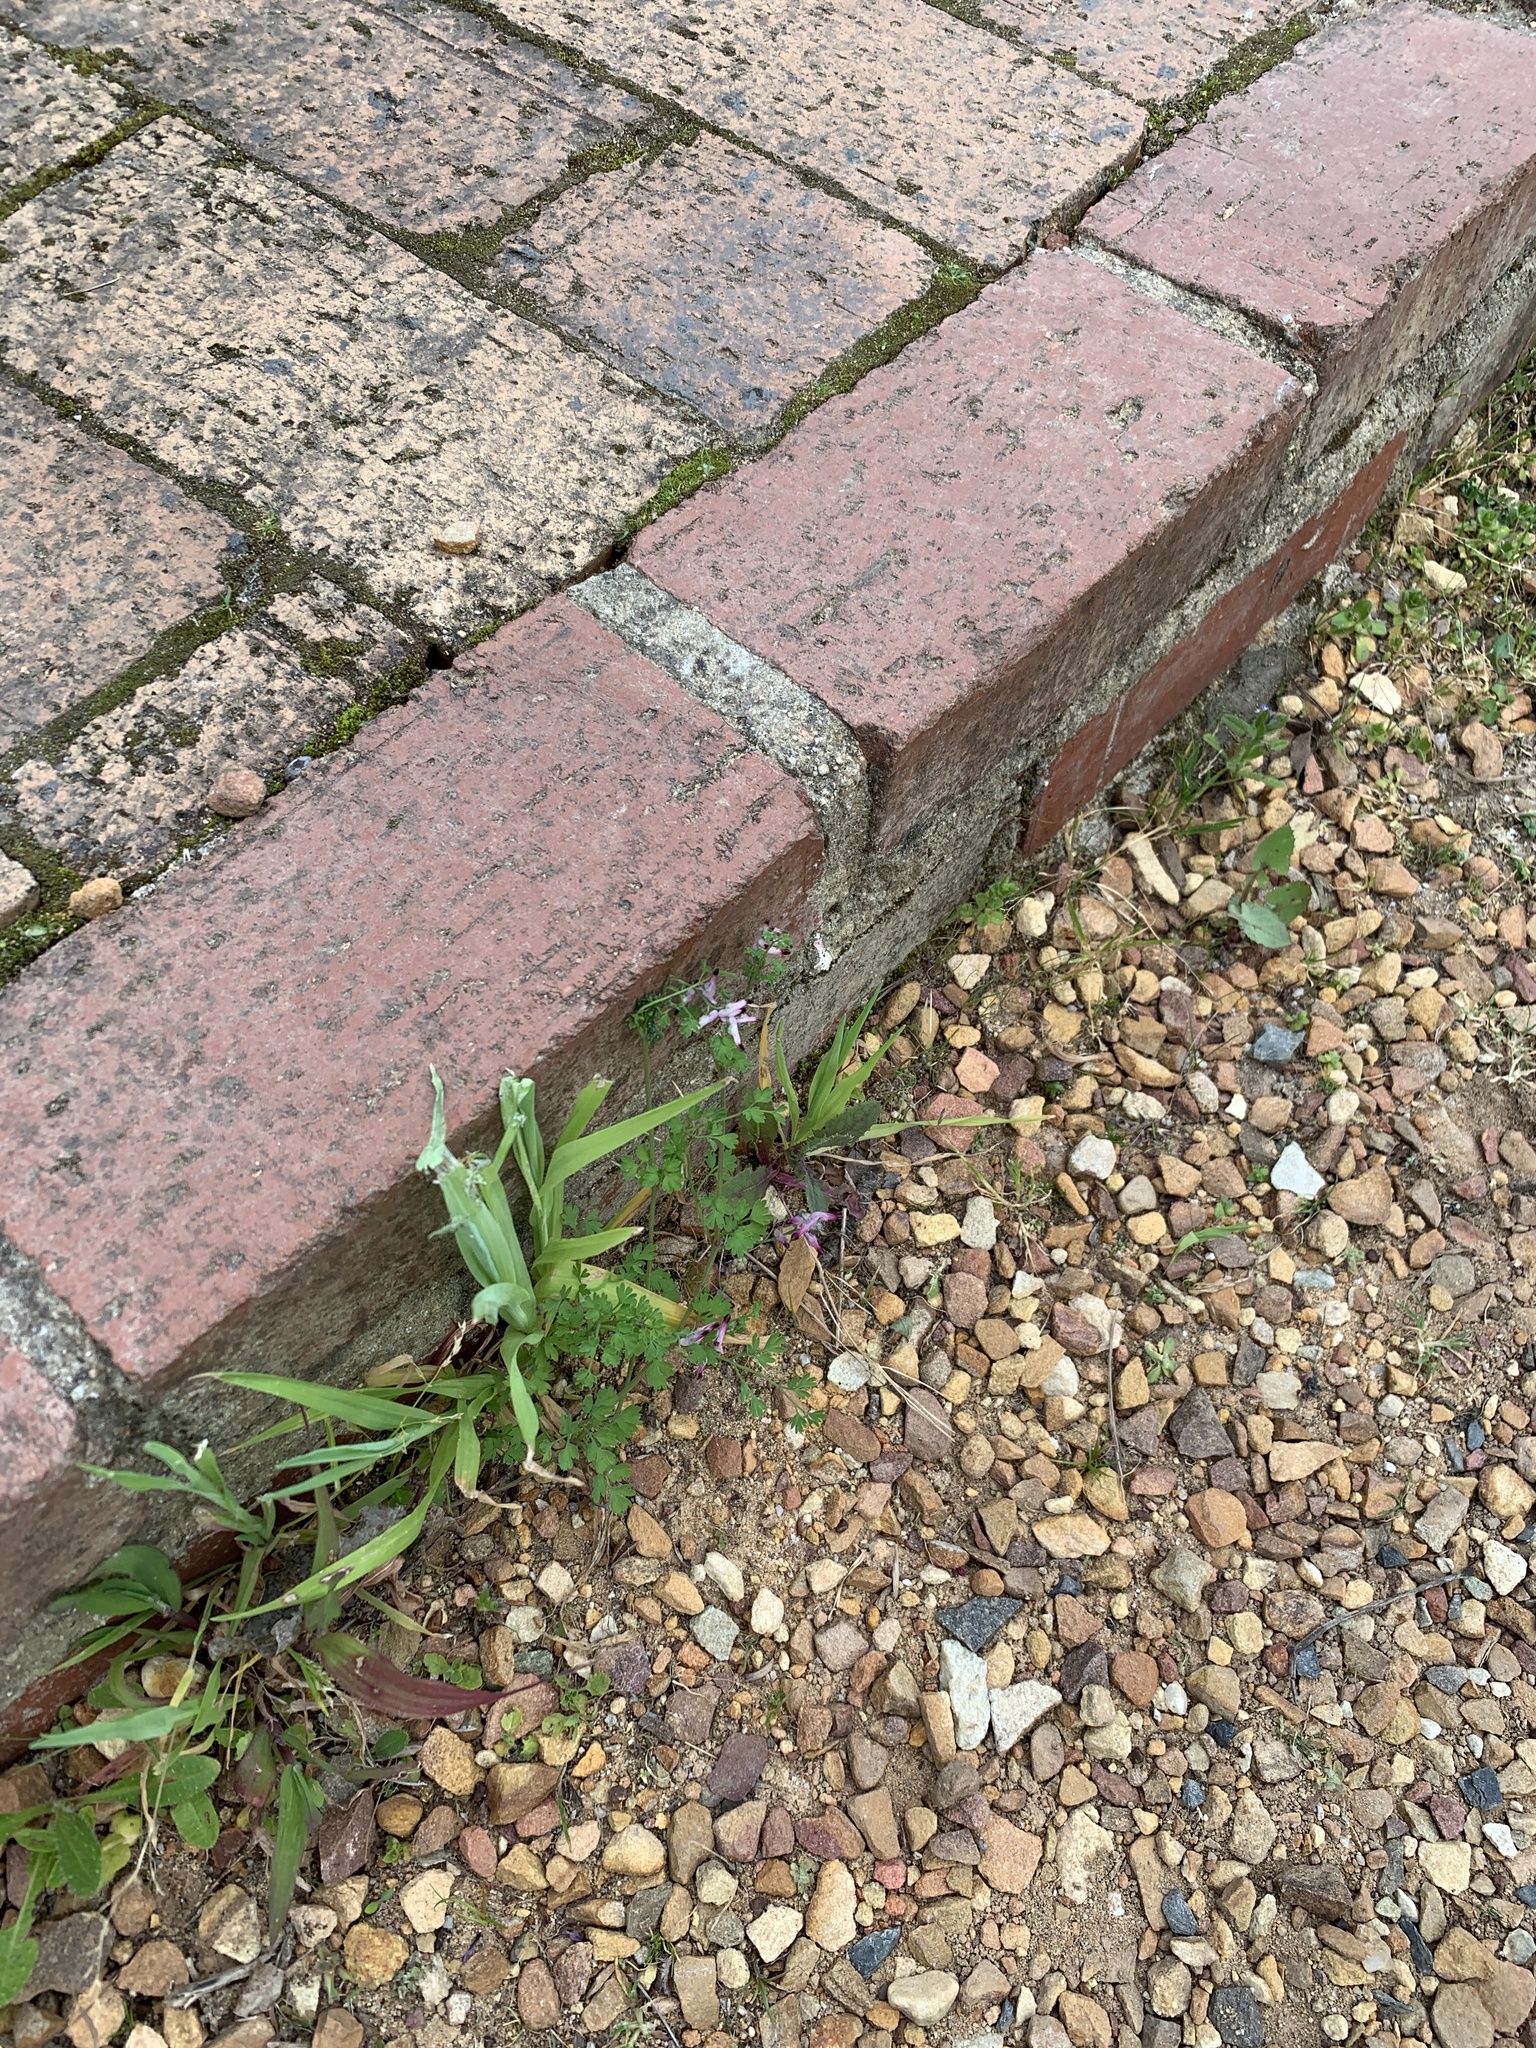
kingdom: Plantae
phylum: Tracheophyta
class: Magnoliopsida
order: Ranunculales
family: Papaveraceae
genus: Fumaria
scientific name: Fumaria muralis
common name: Common ramping-fumitory
